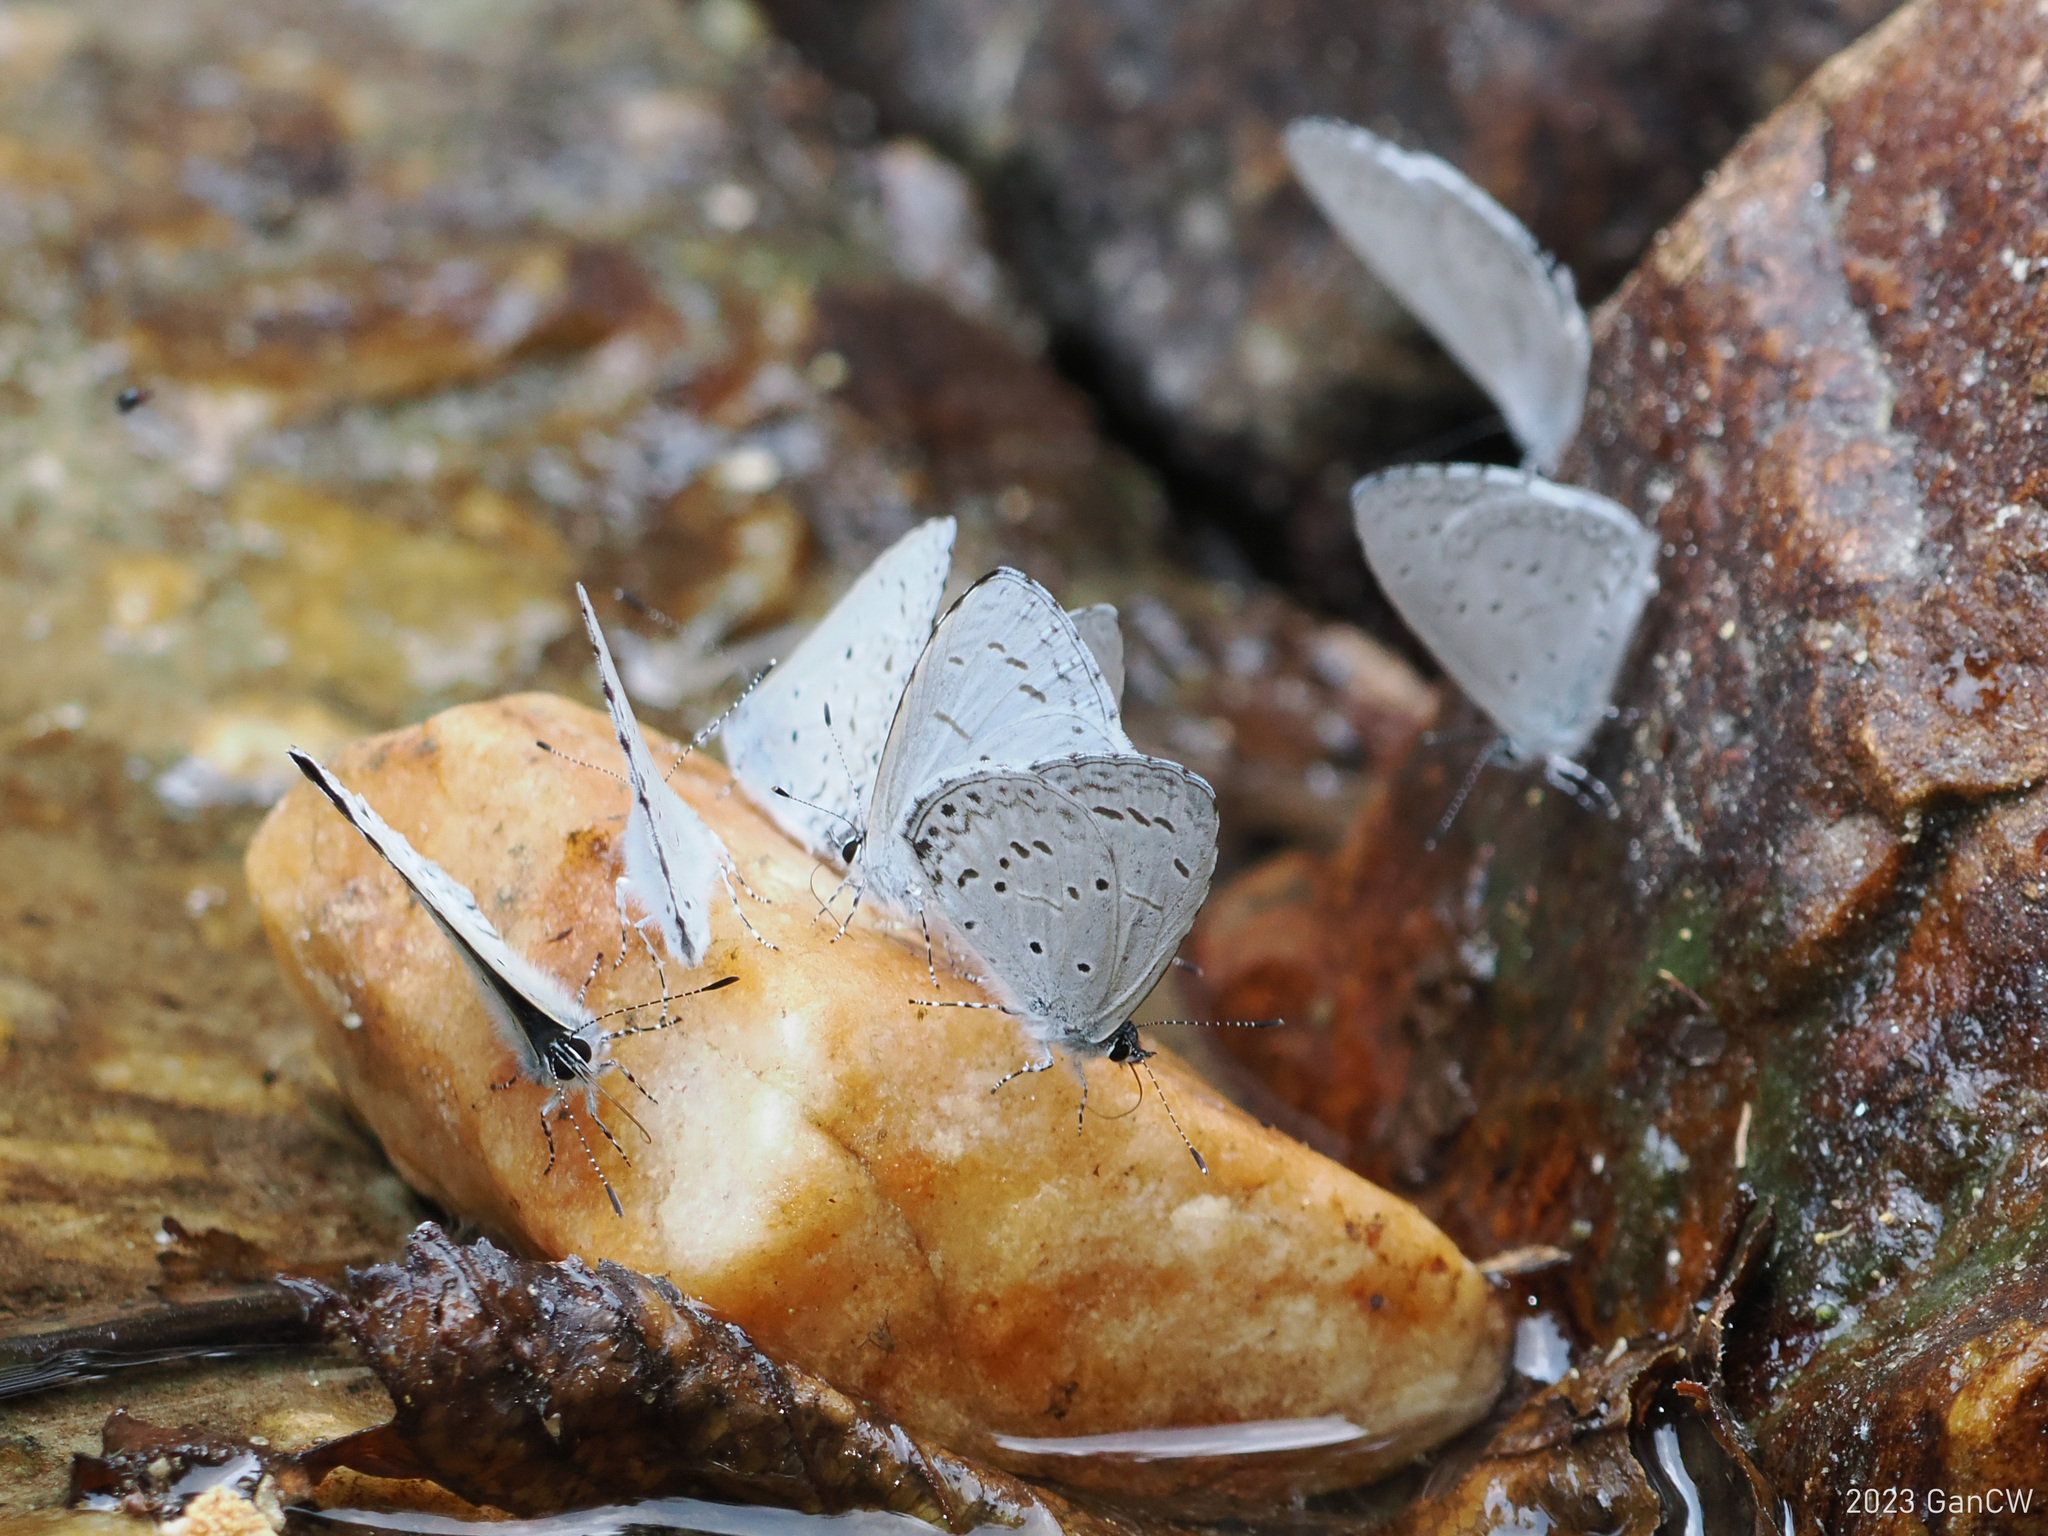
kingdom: Animalia
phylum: Arthropoda
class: Insecta
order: Lepidoptera
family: Lycaenidae
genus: Celastrina
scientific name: Celastrina lavendularis
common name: Plain hedge blue
